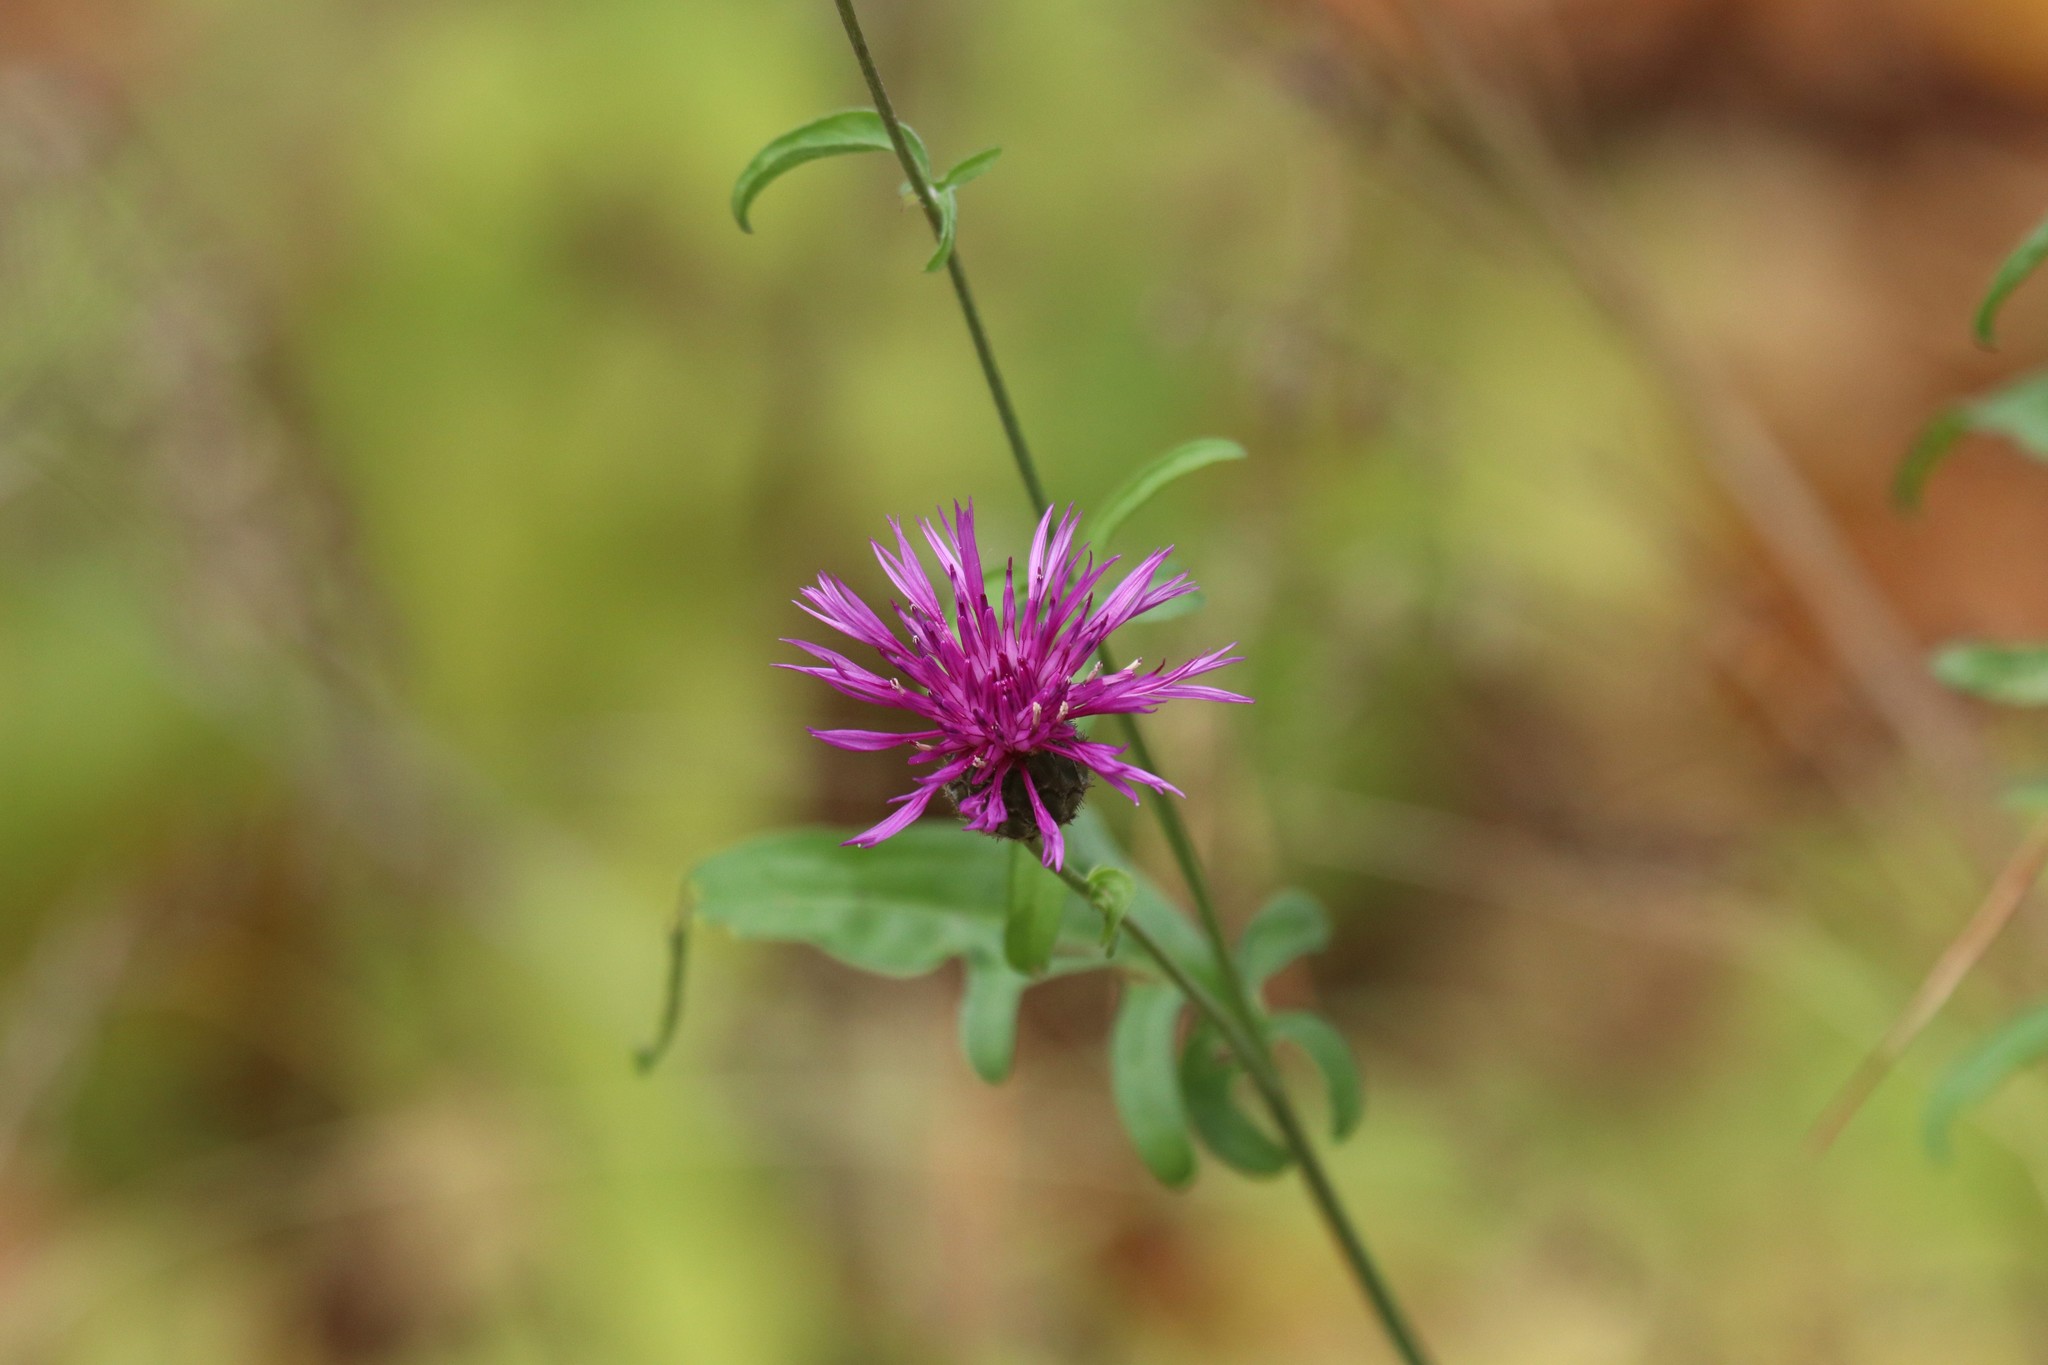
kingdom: Plantae
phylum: Tracheophyta
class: Magnoliopsida
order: Asterales
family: Asteraceae
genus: Centaurea
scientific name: Centaurea scabiosa
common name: Greater knapweed
